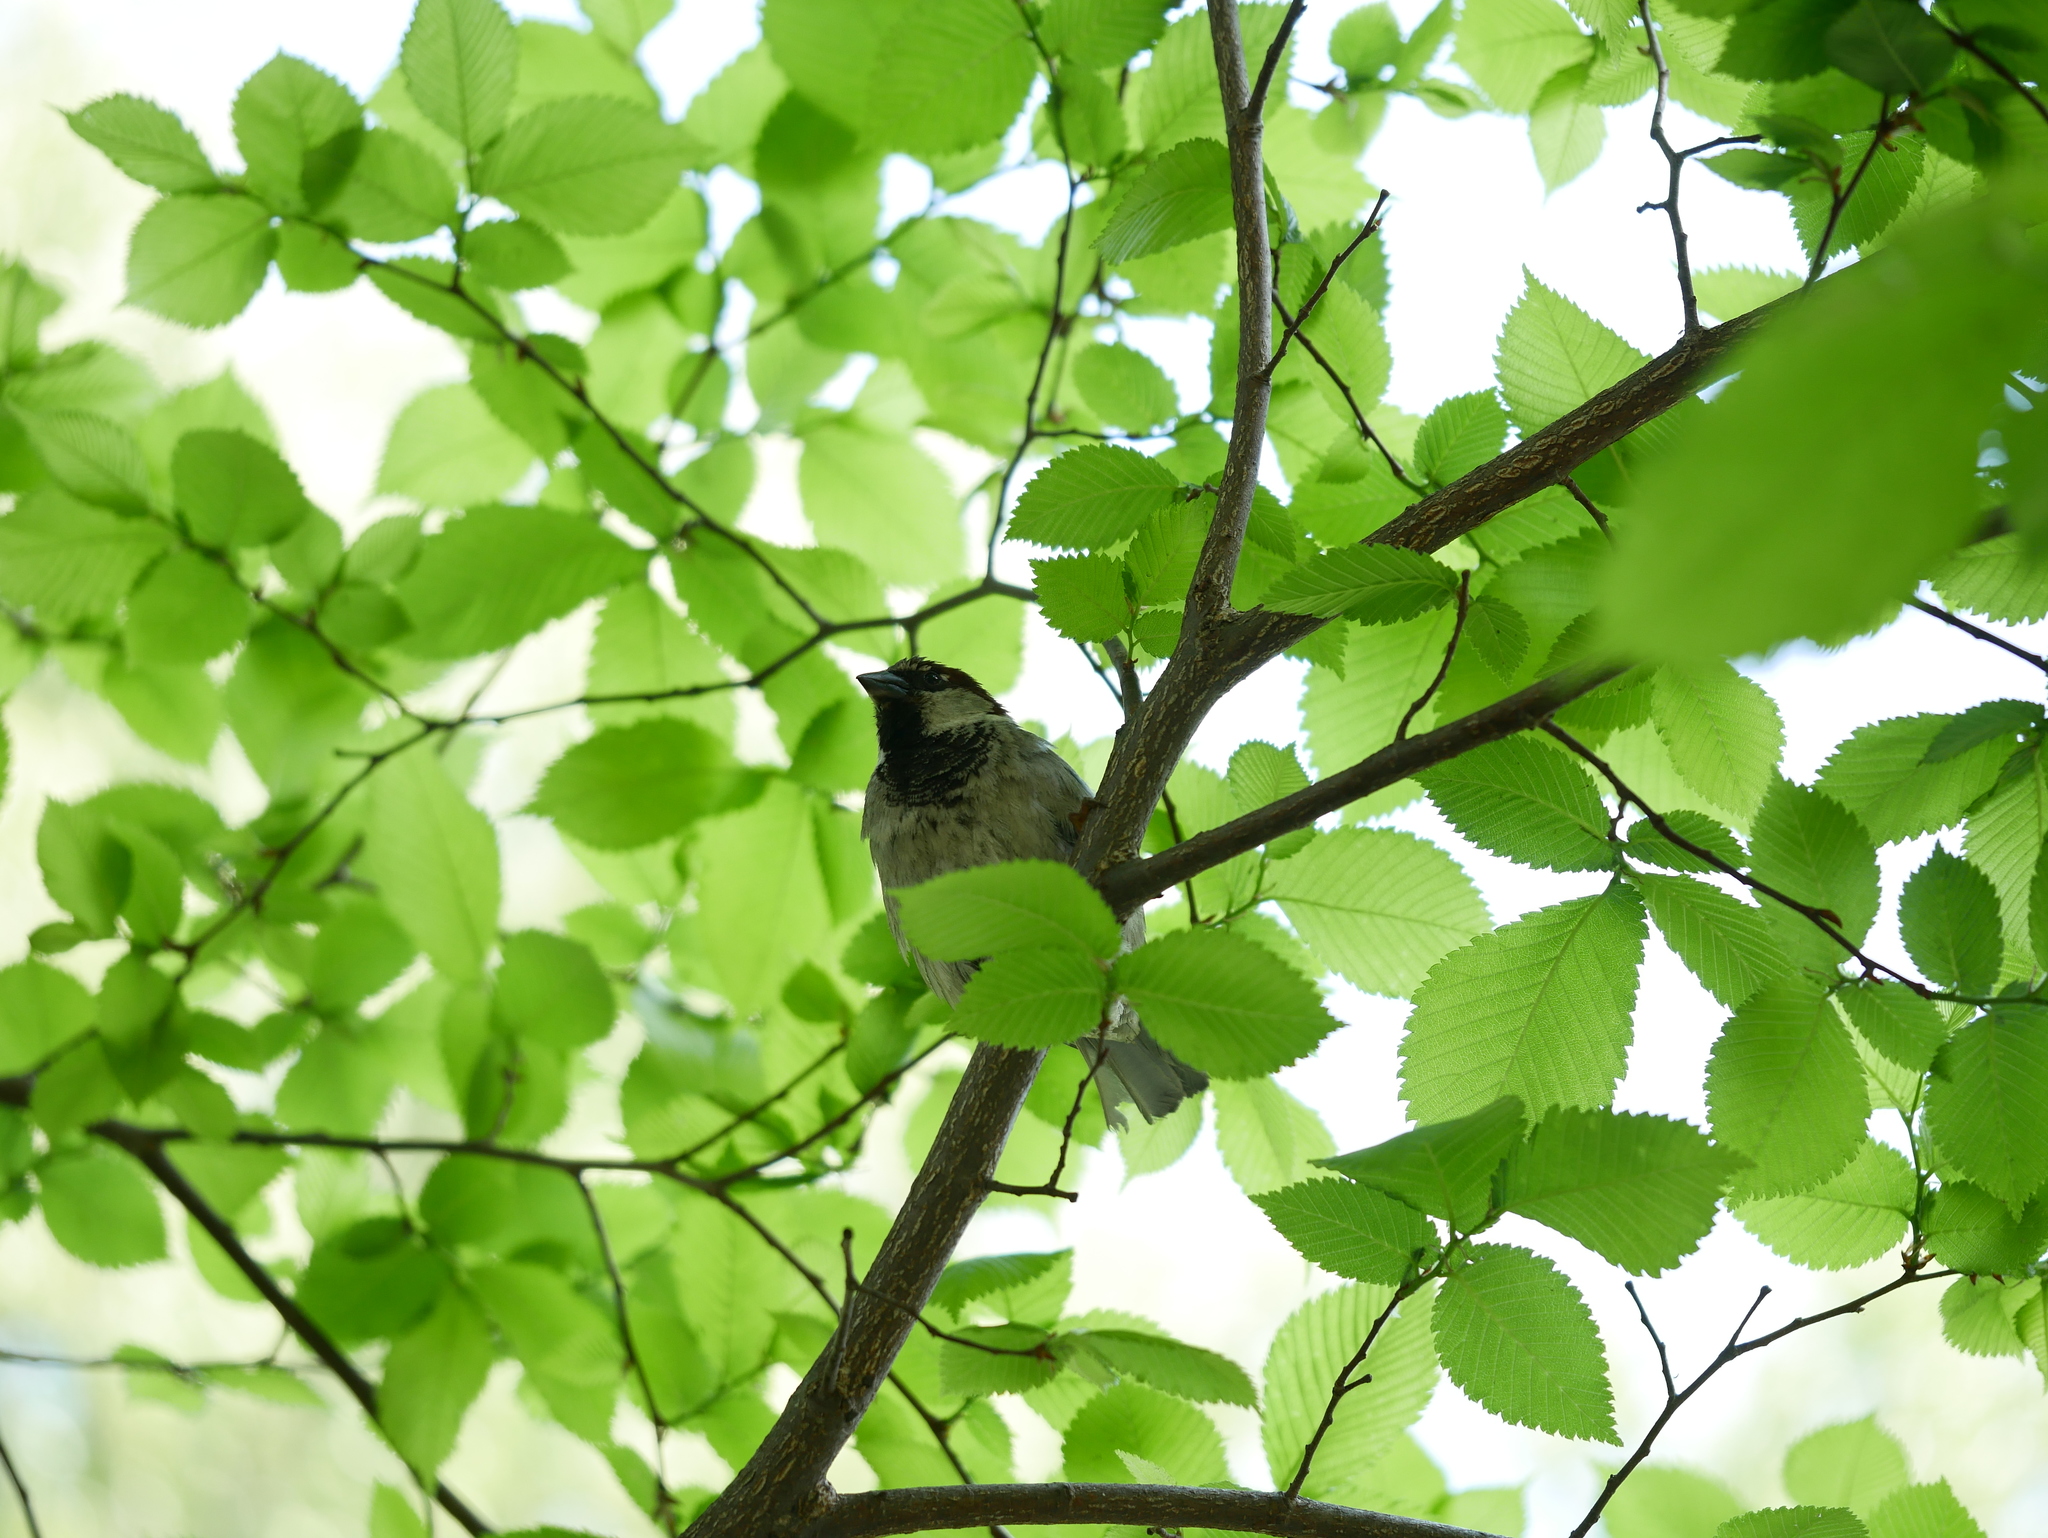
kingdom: Animalia
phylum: Chordata
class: Aves
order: Passeriformes
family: Passeridae
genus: Passer
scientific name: Passer domesticus
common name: House sparrow
